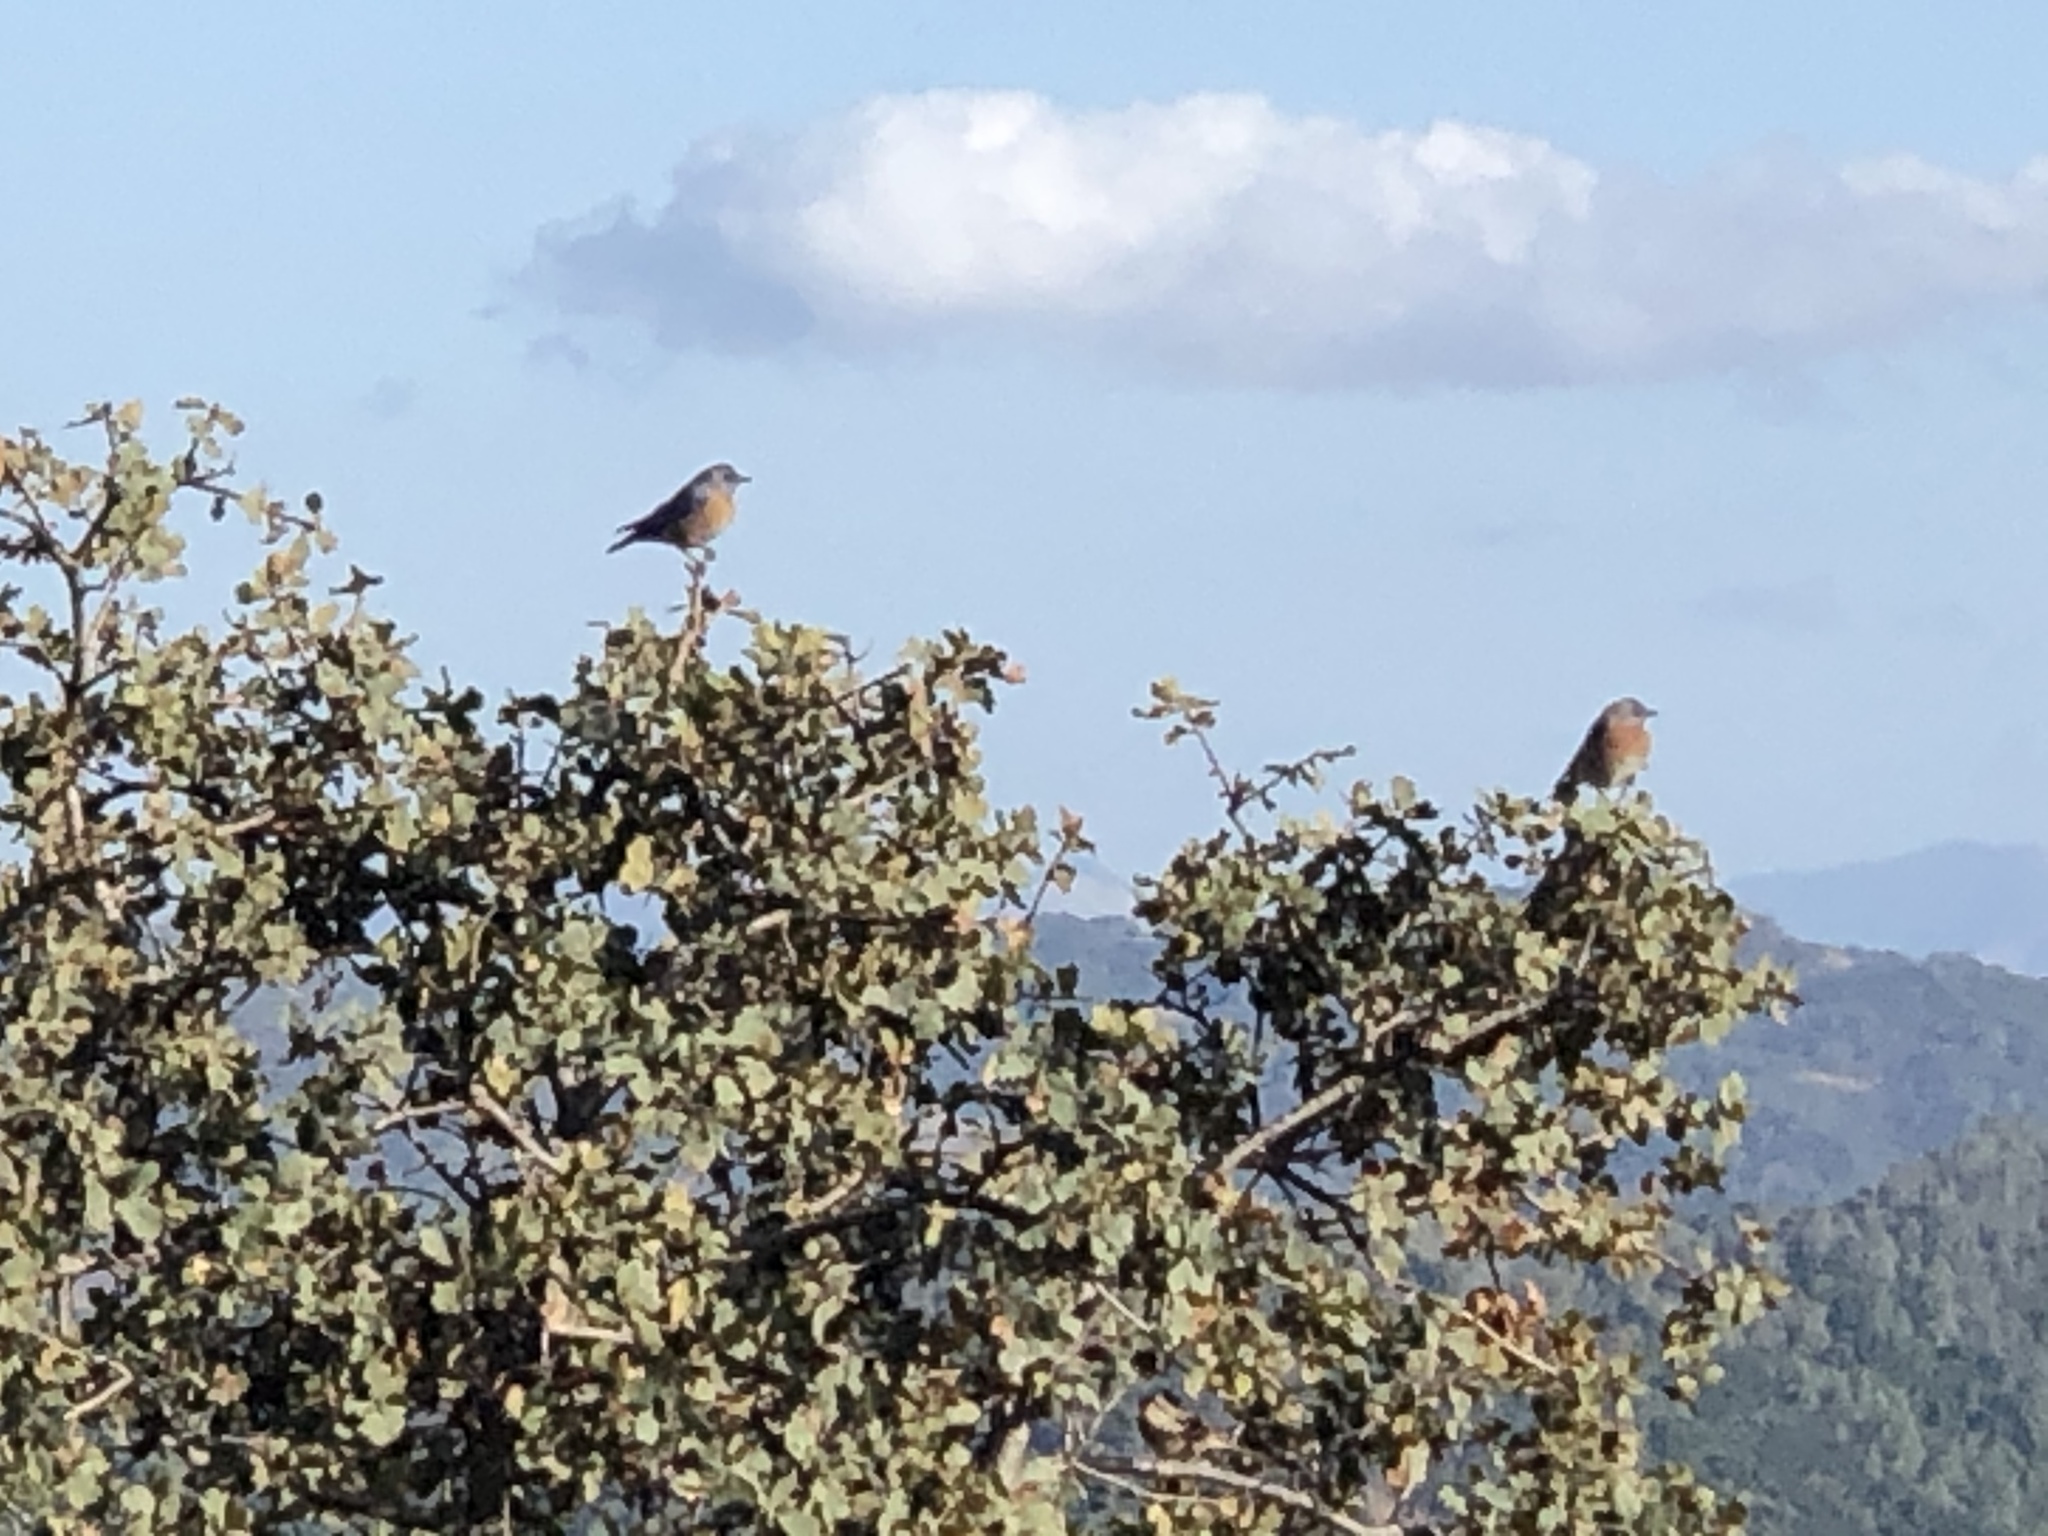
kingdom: Animalia
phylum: Chordata
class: Aves
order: Passeriformes
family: Turdidae
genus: Sialia
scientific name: Sialia mexicana
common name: Western bluebird
